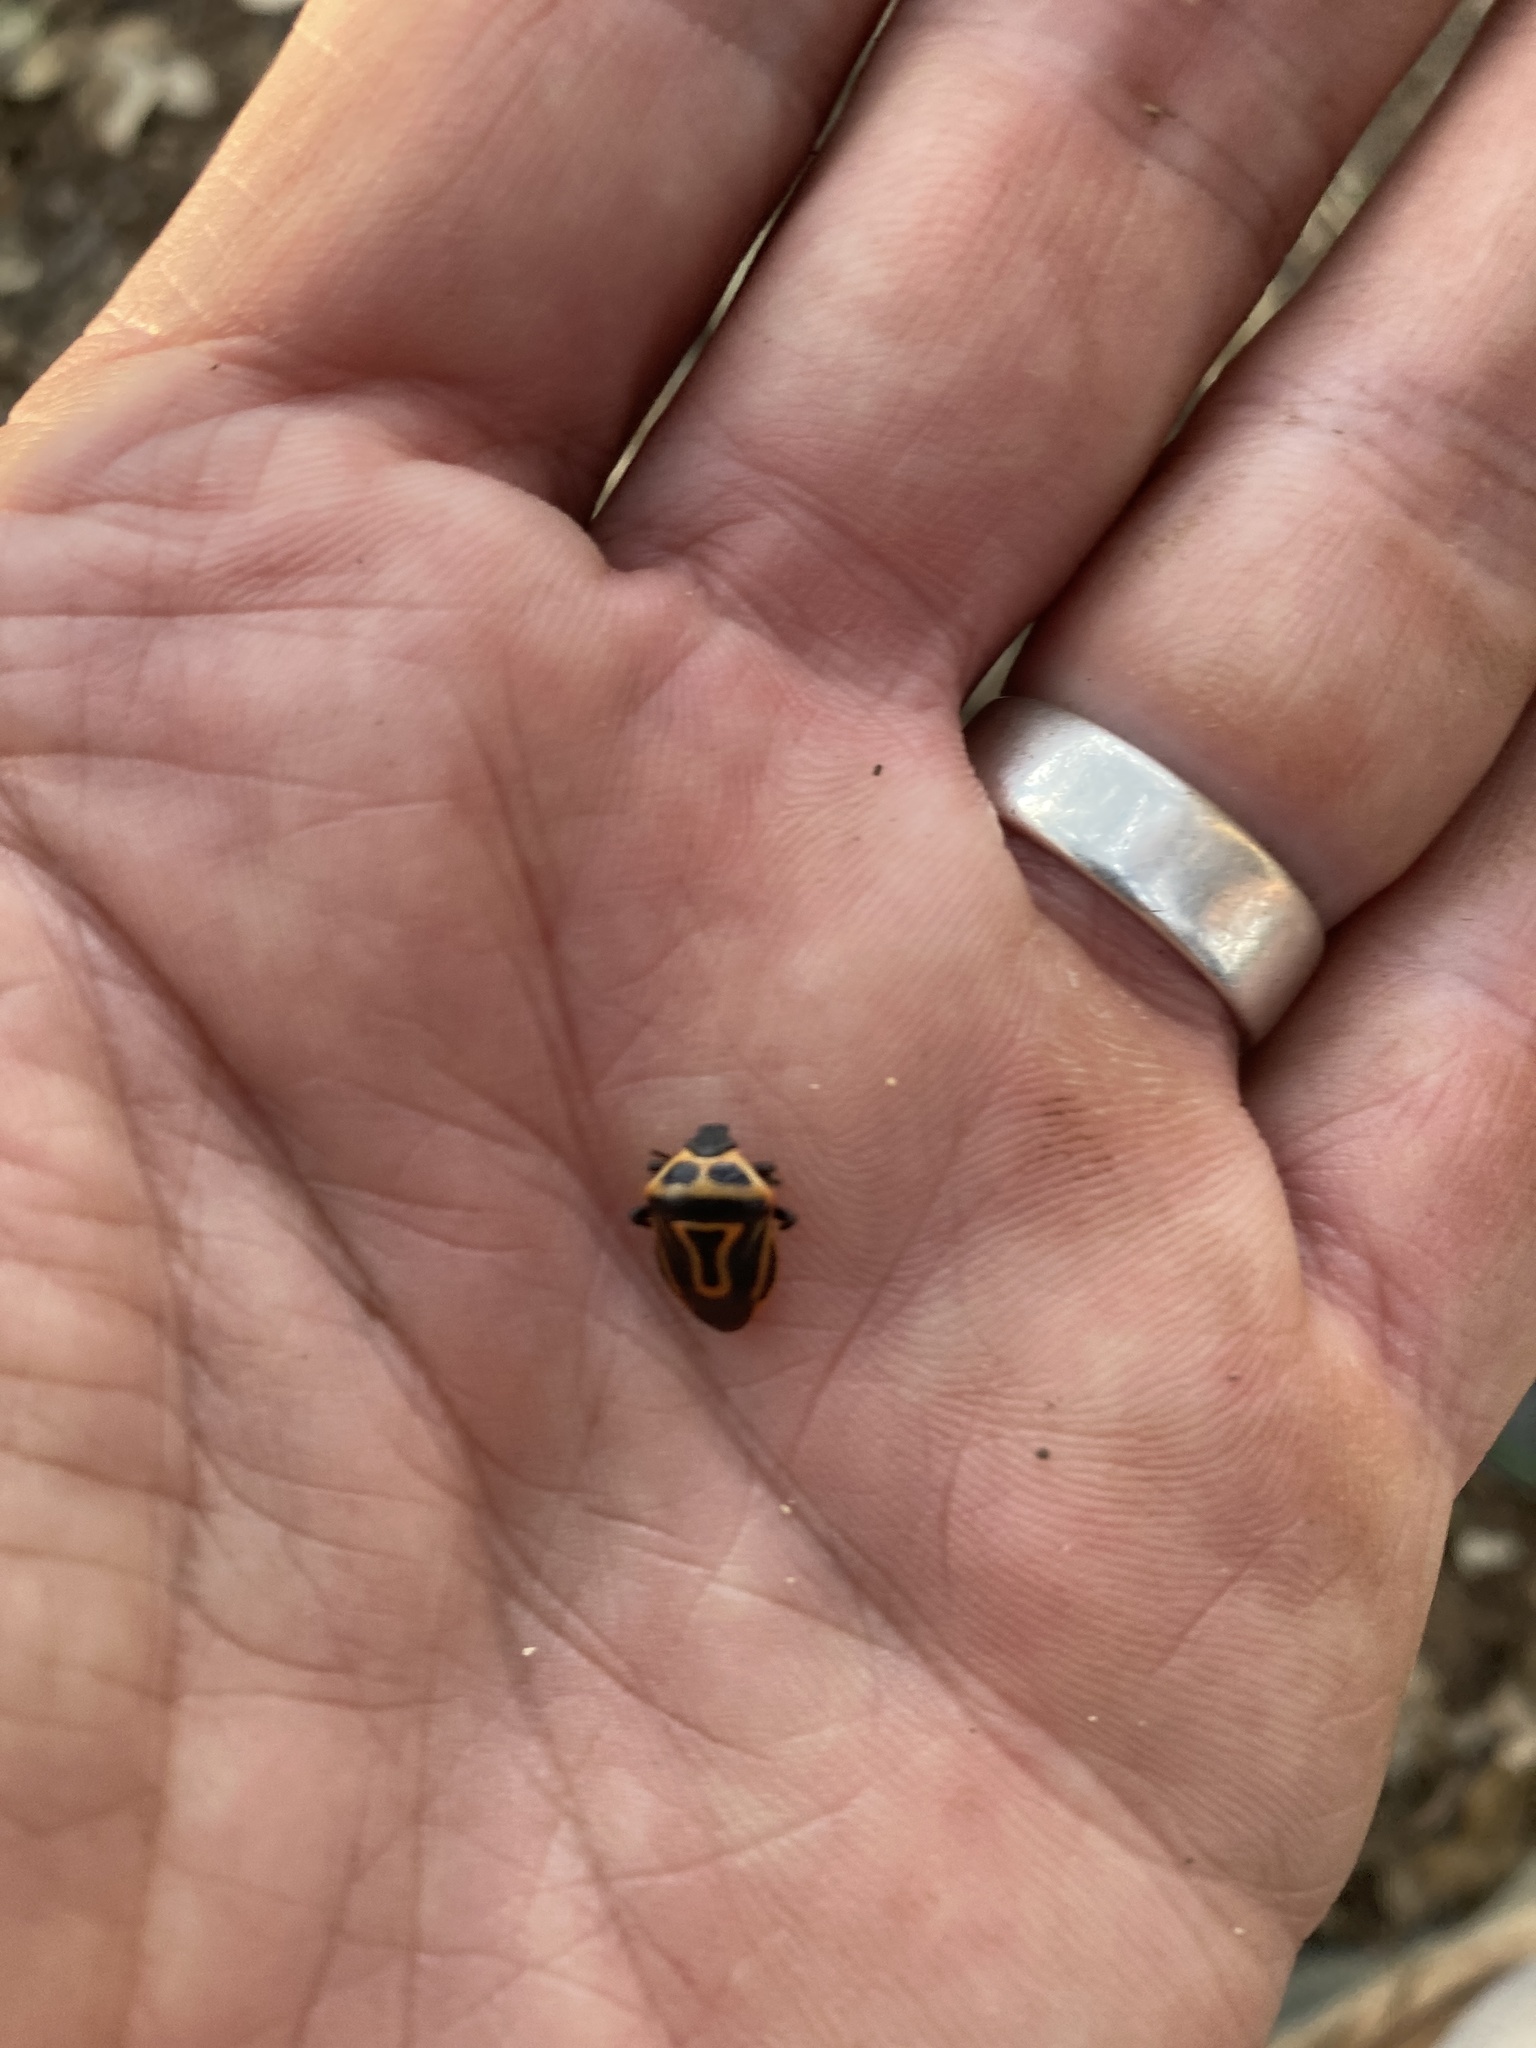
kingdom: Animalia
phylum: Arthropoda
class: Insecta
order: Hemiptera
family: Pentatomidae
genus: Perillus
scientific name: Perillus bioculatus
